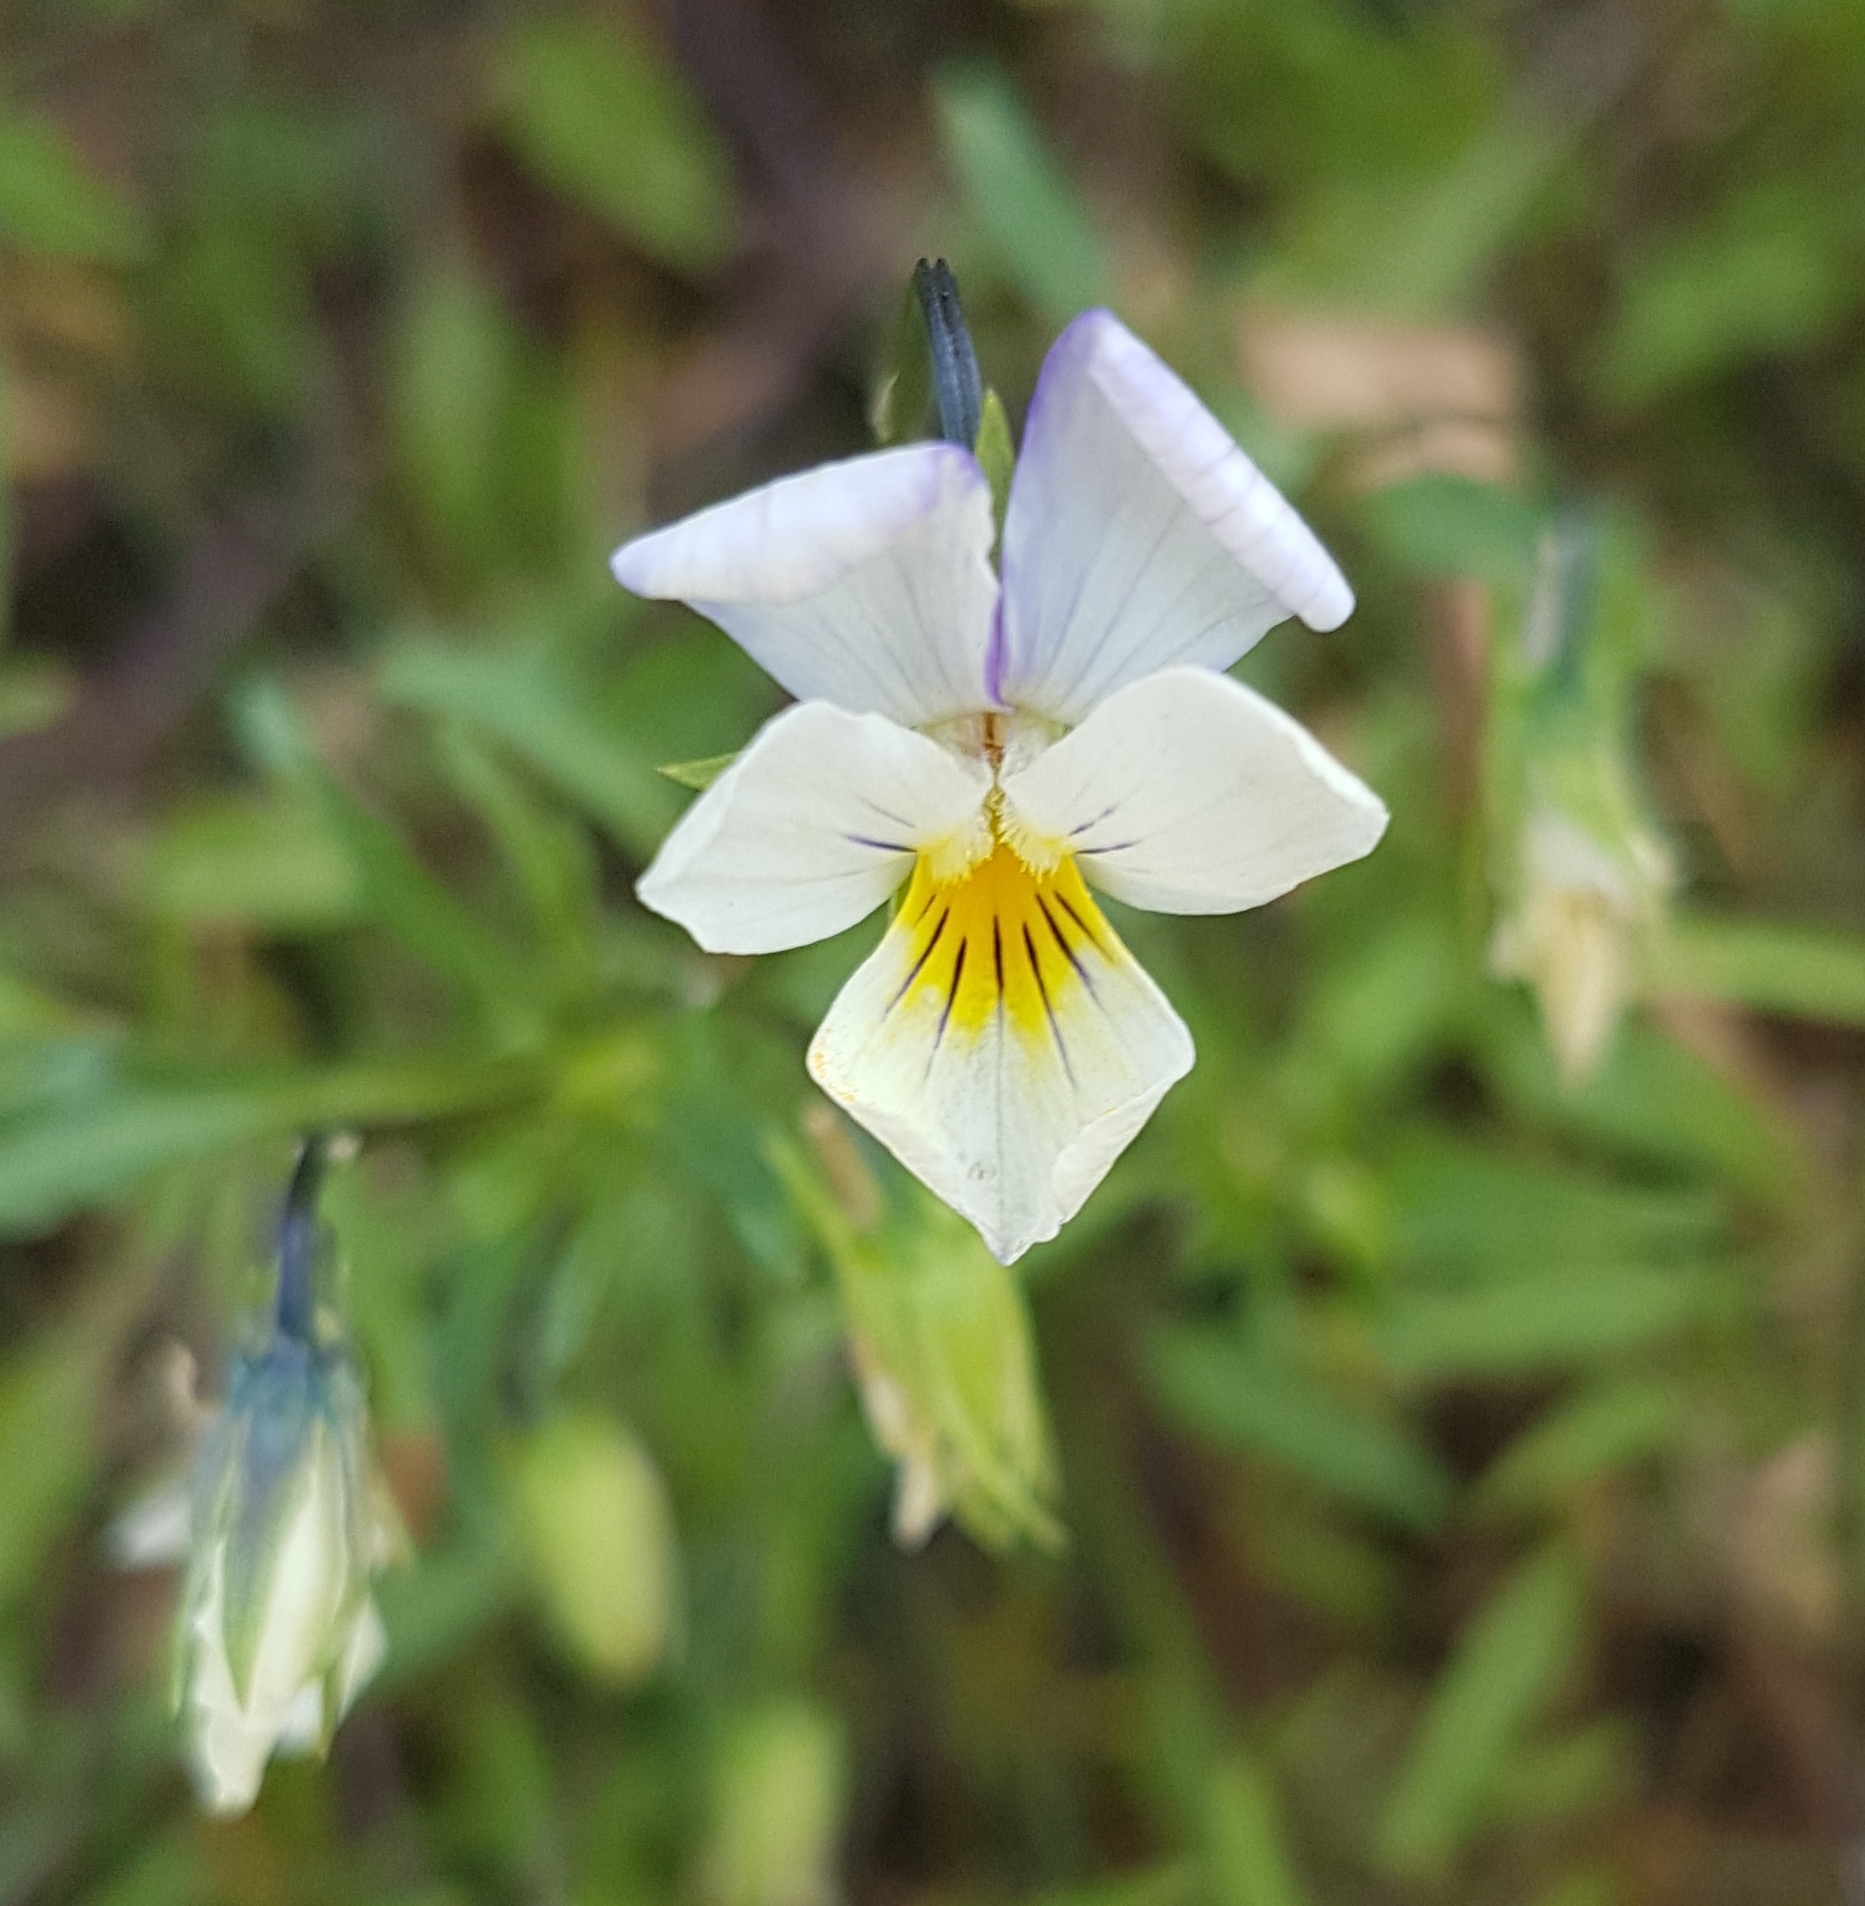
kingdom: Plantae
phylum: Tracheophyta
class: Magnoliopsida
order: Malpighiales
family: Violaceae
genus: Viola
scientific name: Viola arvensis
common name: Field pansy
